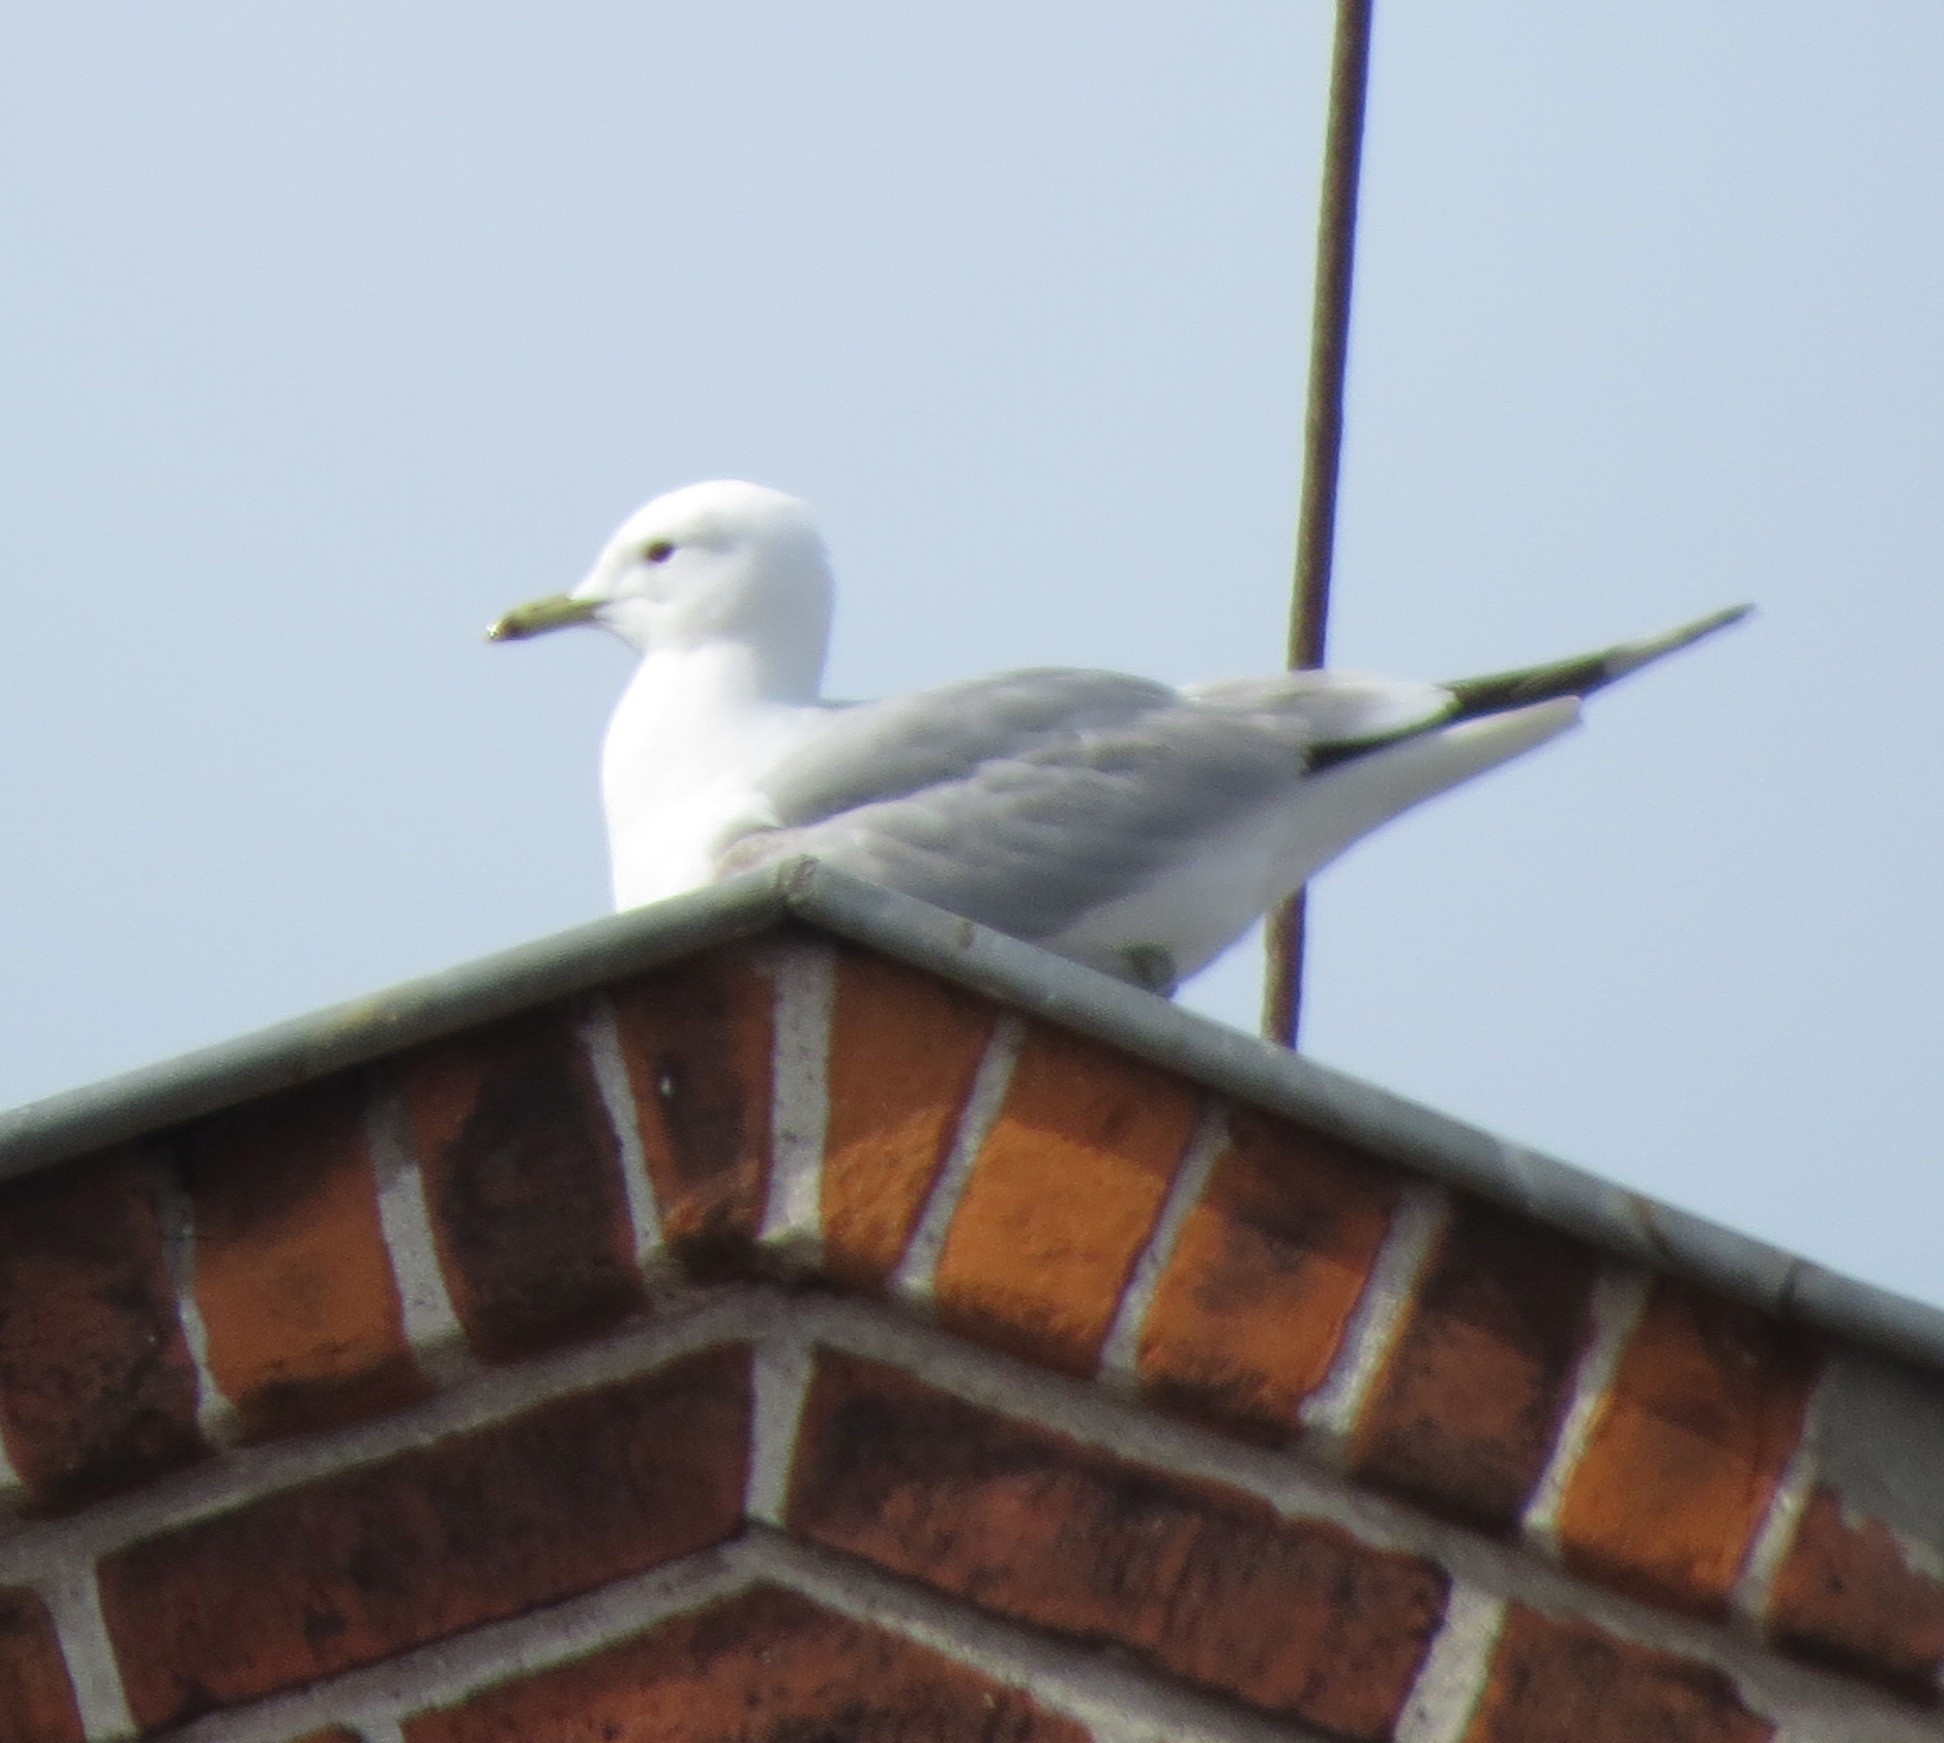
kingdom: Animalia
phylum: Chordata
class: Aves
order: Charadriiformes
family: Laridae
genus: Larus
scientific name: Larus canus
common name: Mew gull
